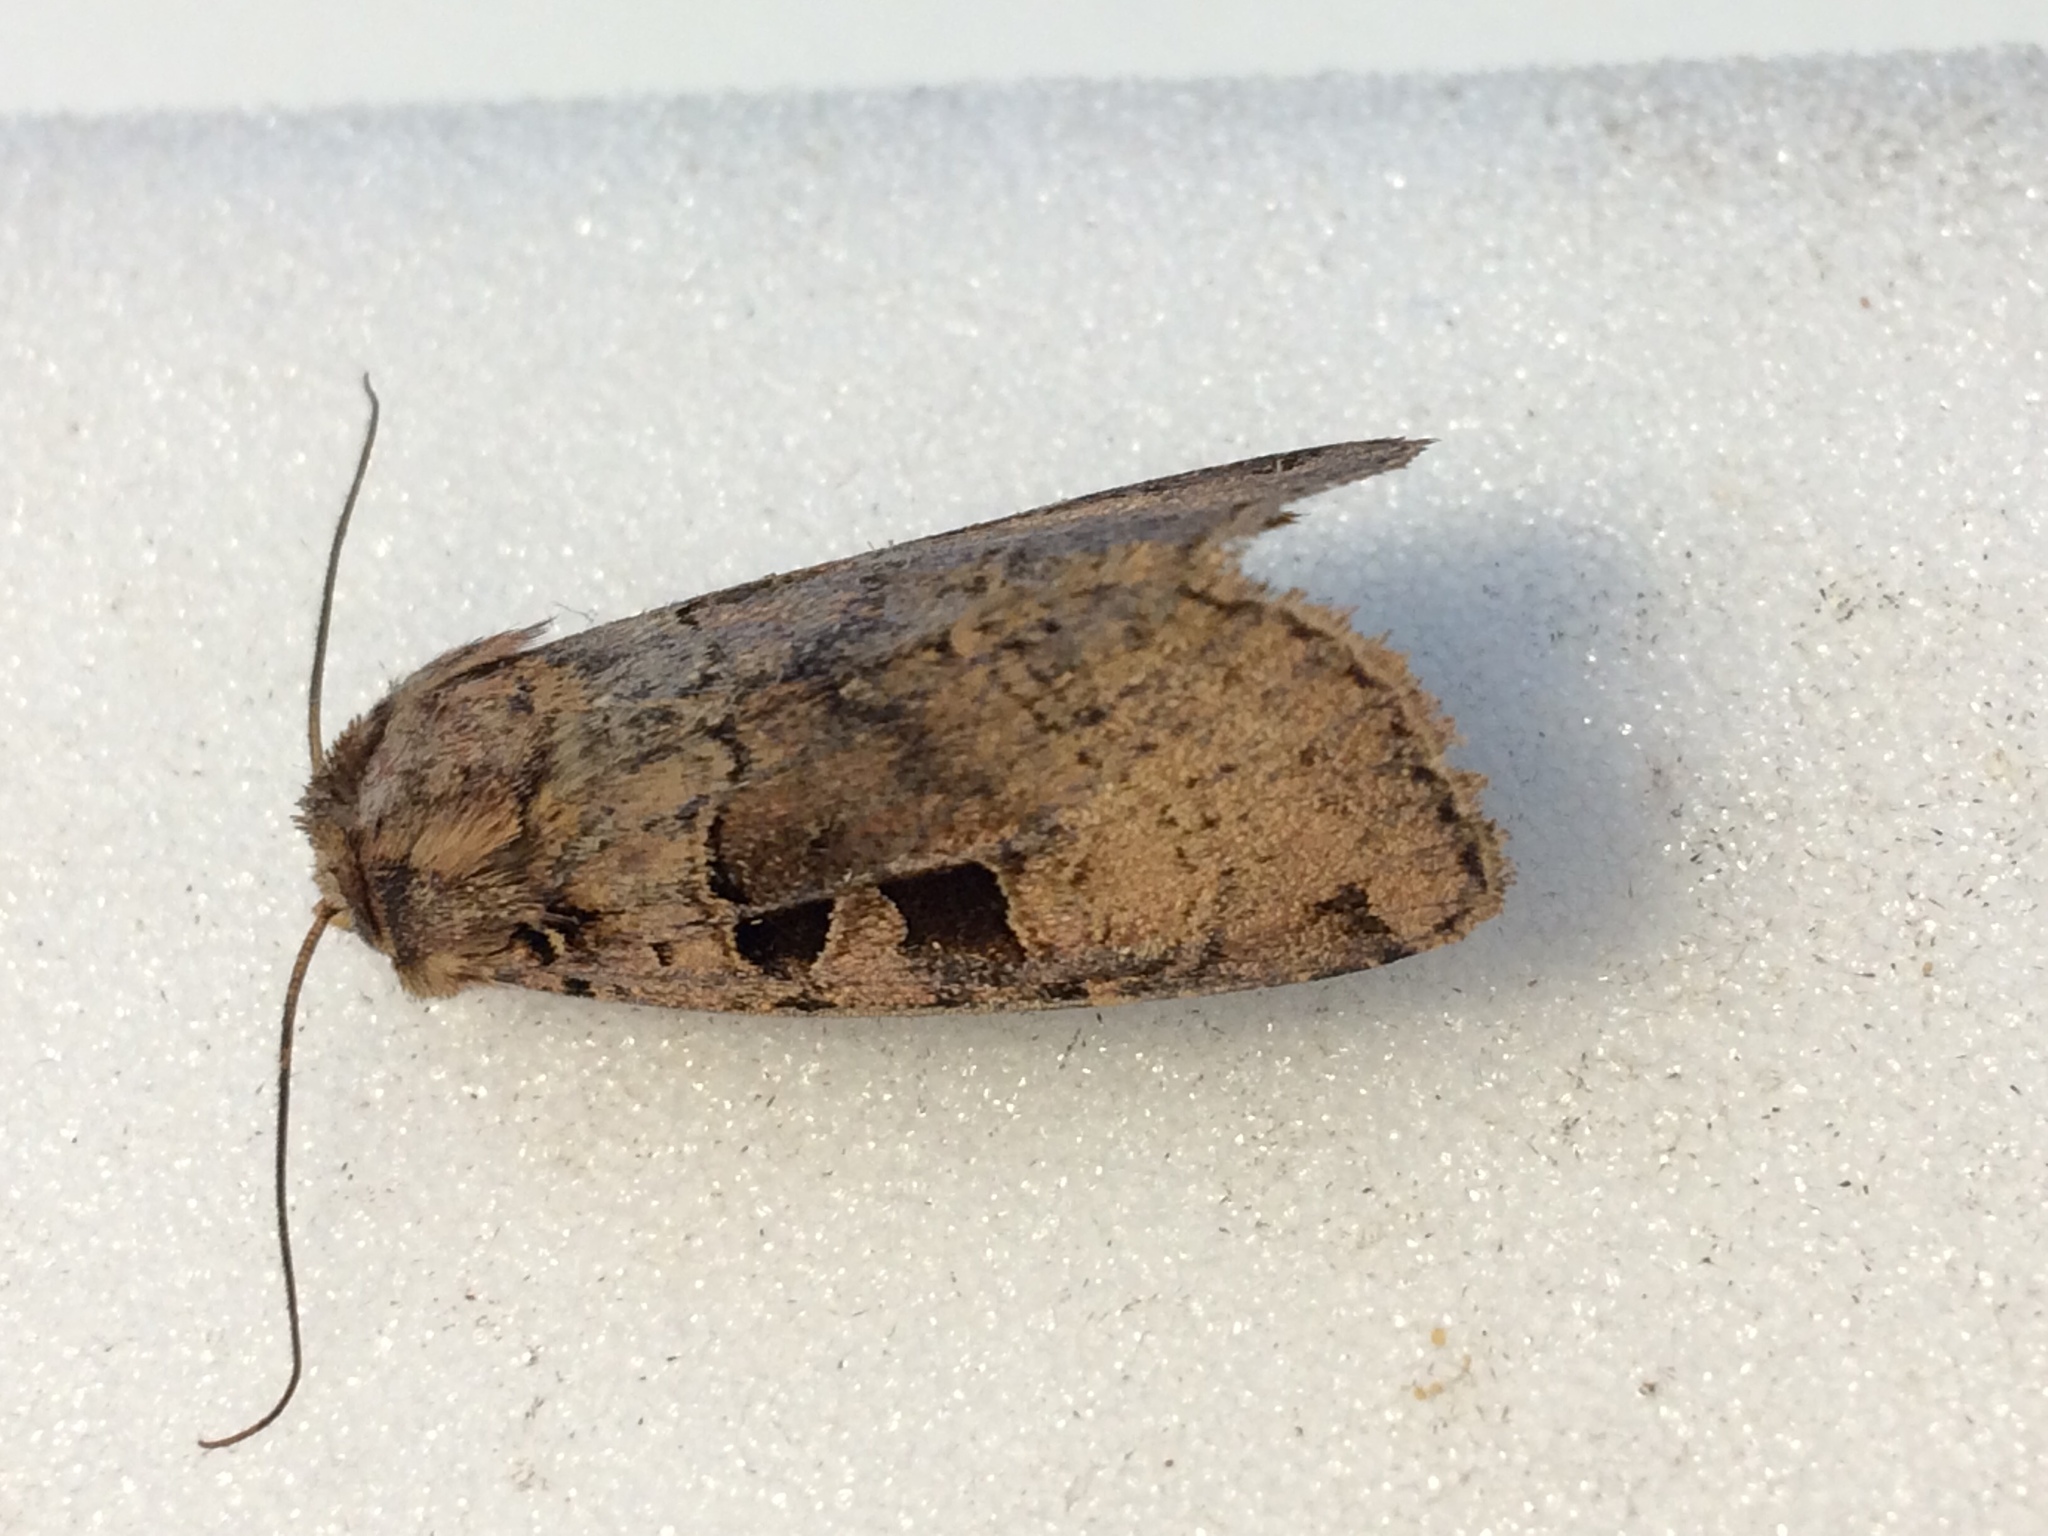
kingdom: Animalia
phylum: Arthropoda
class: Insecta
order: Lepidoptera
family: Noctuidae
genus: Xestia
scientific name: Xestia triangulum
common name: Double square-spot
